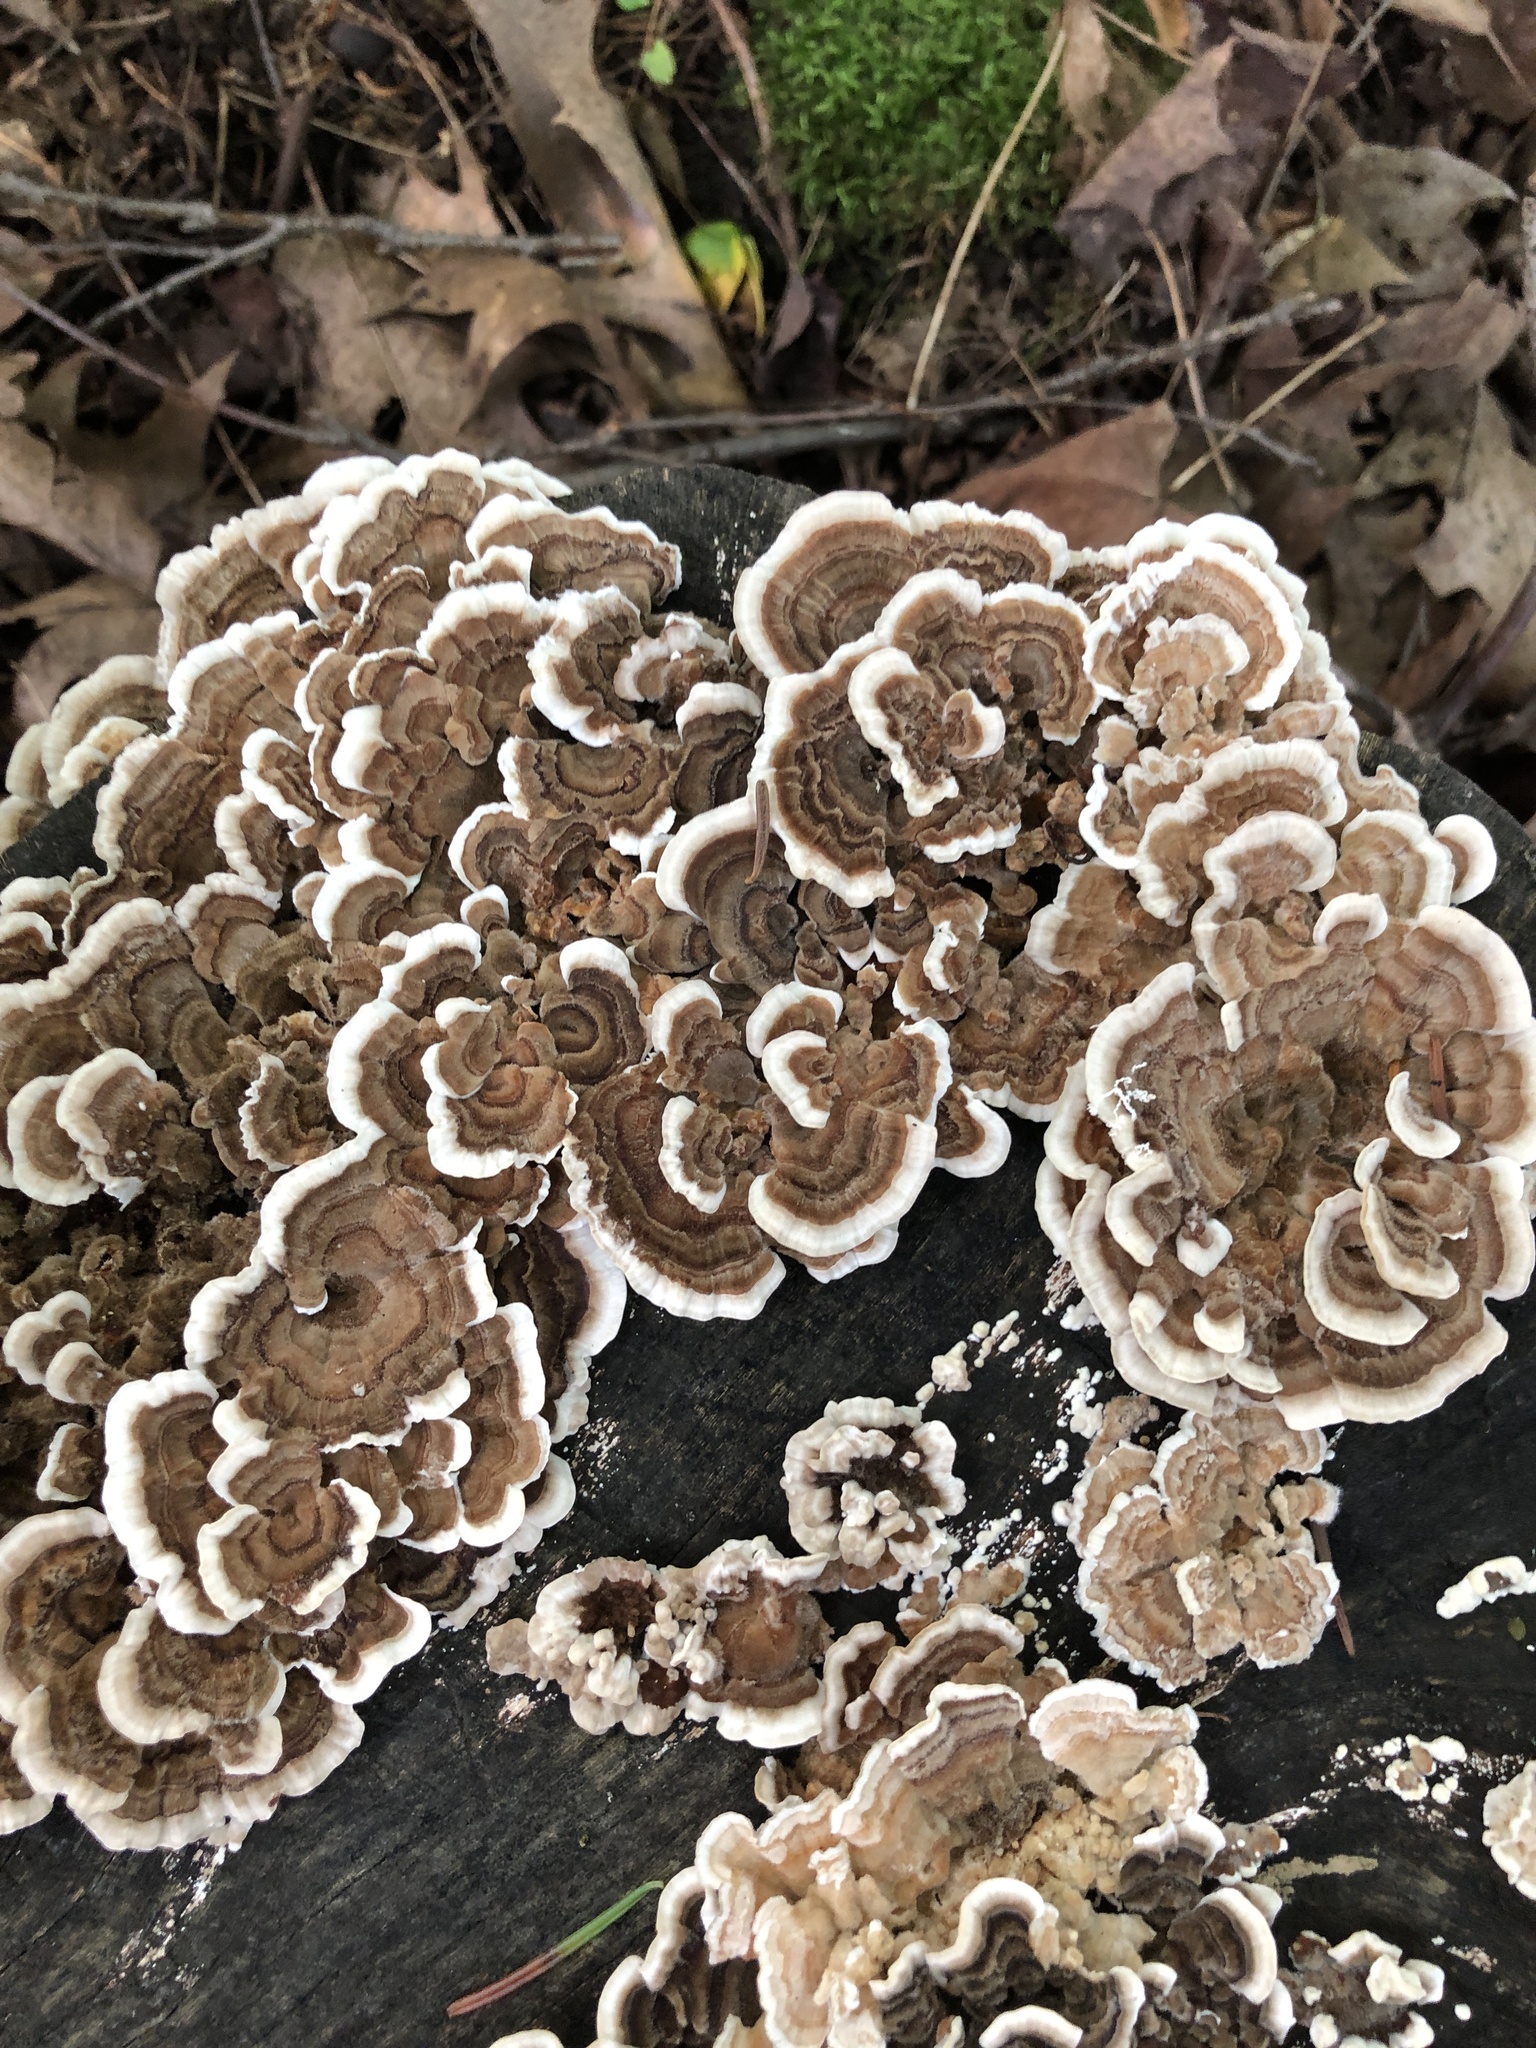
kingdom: Fungi
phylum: Basidiomycota
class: Agaricomycetes
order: Polyporales
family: Polyporaceae
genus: Trametes
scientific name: Trametes versicolor
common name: Turkeytail
